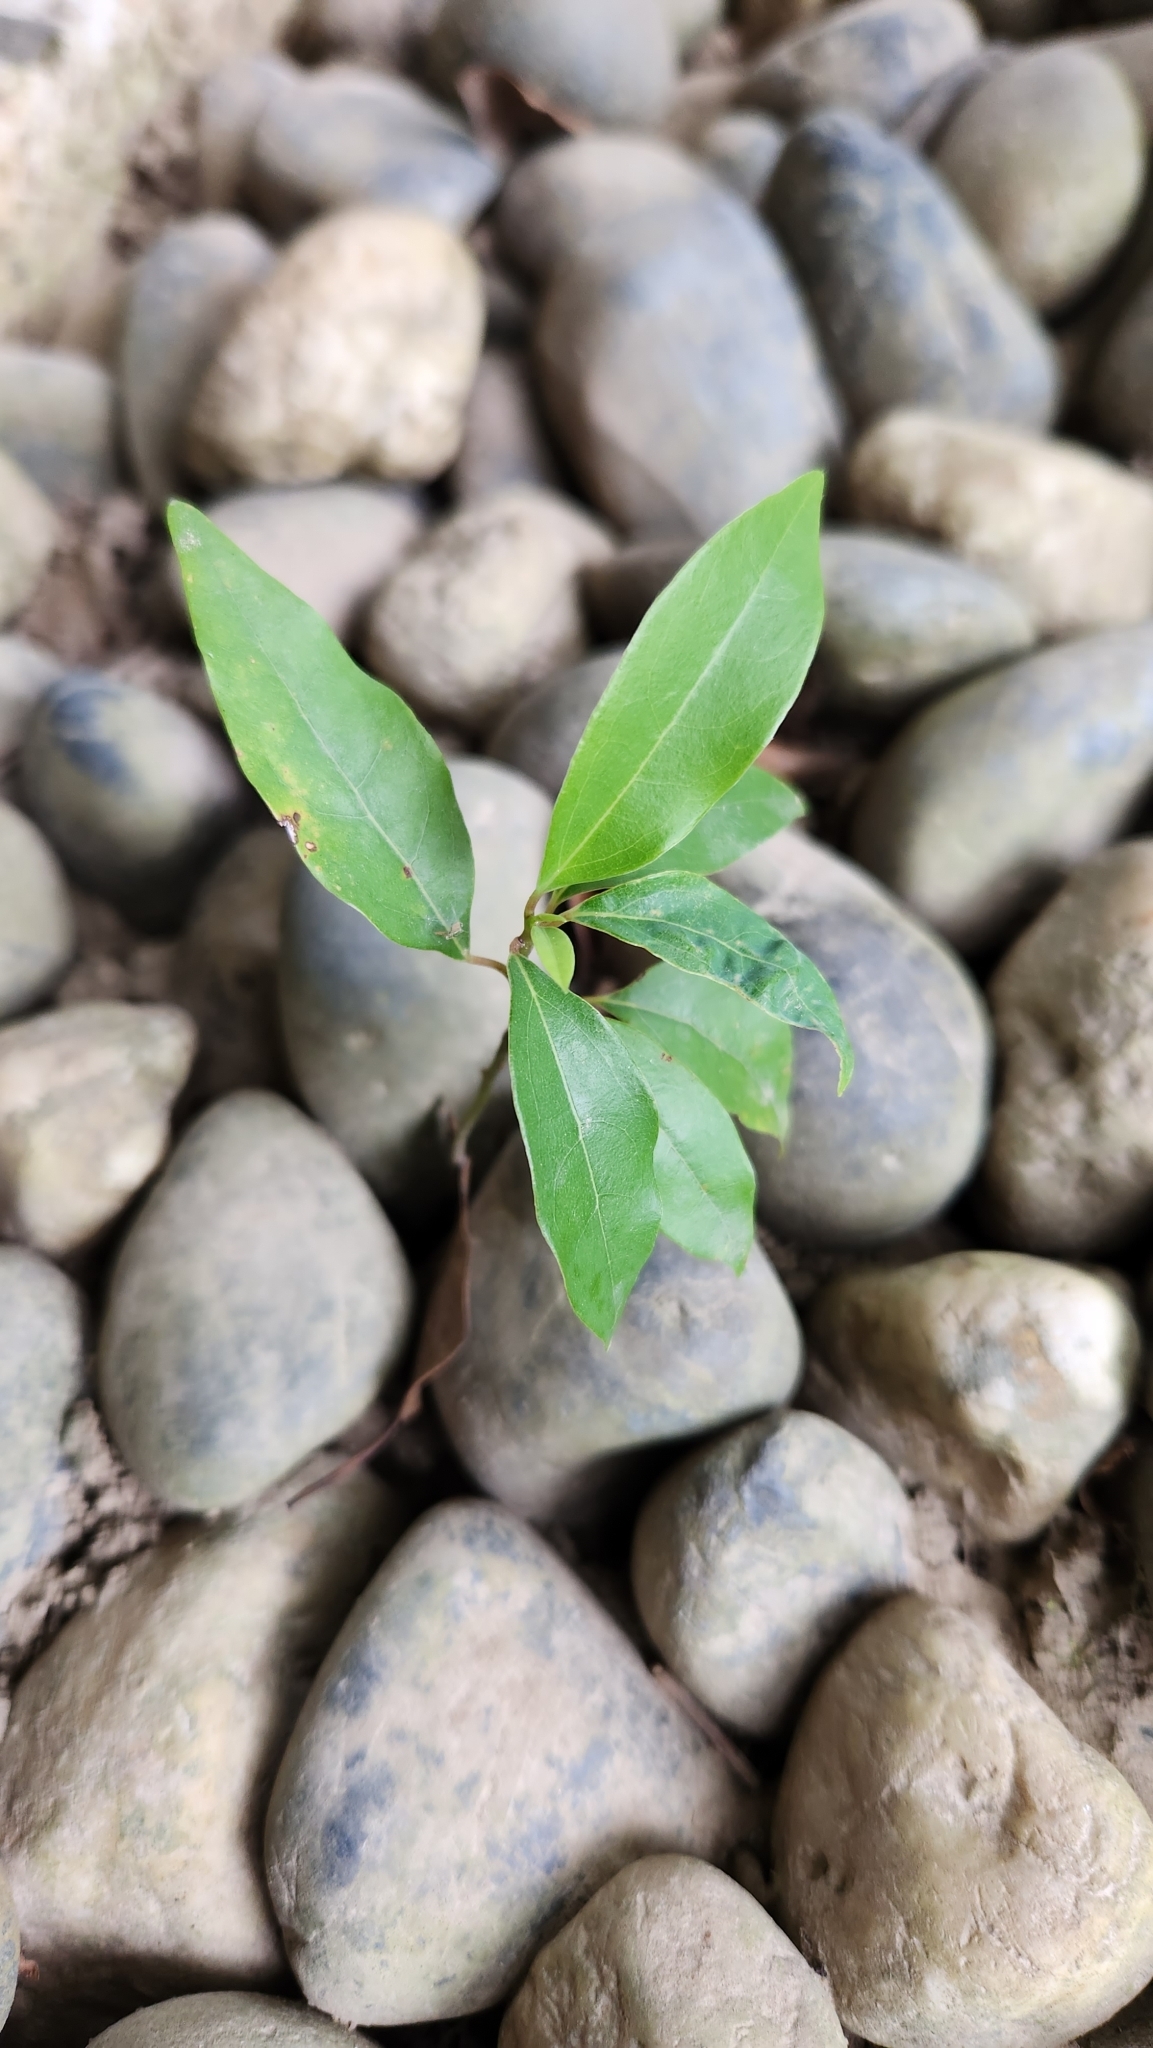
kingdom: Plantae
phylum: Tracheophyta
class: Magnoliopsida
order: Laurales
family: Lauraceae
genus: Cinnamomum
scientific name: Cinnamomum camphora
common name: Camphortree
